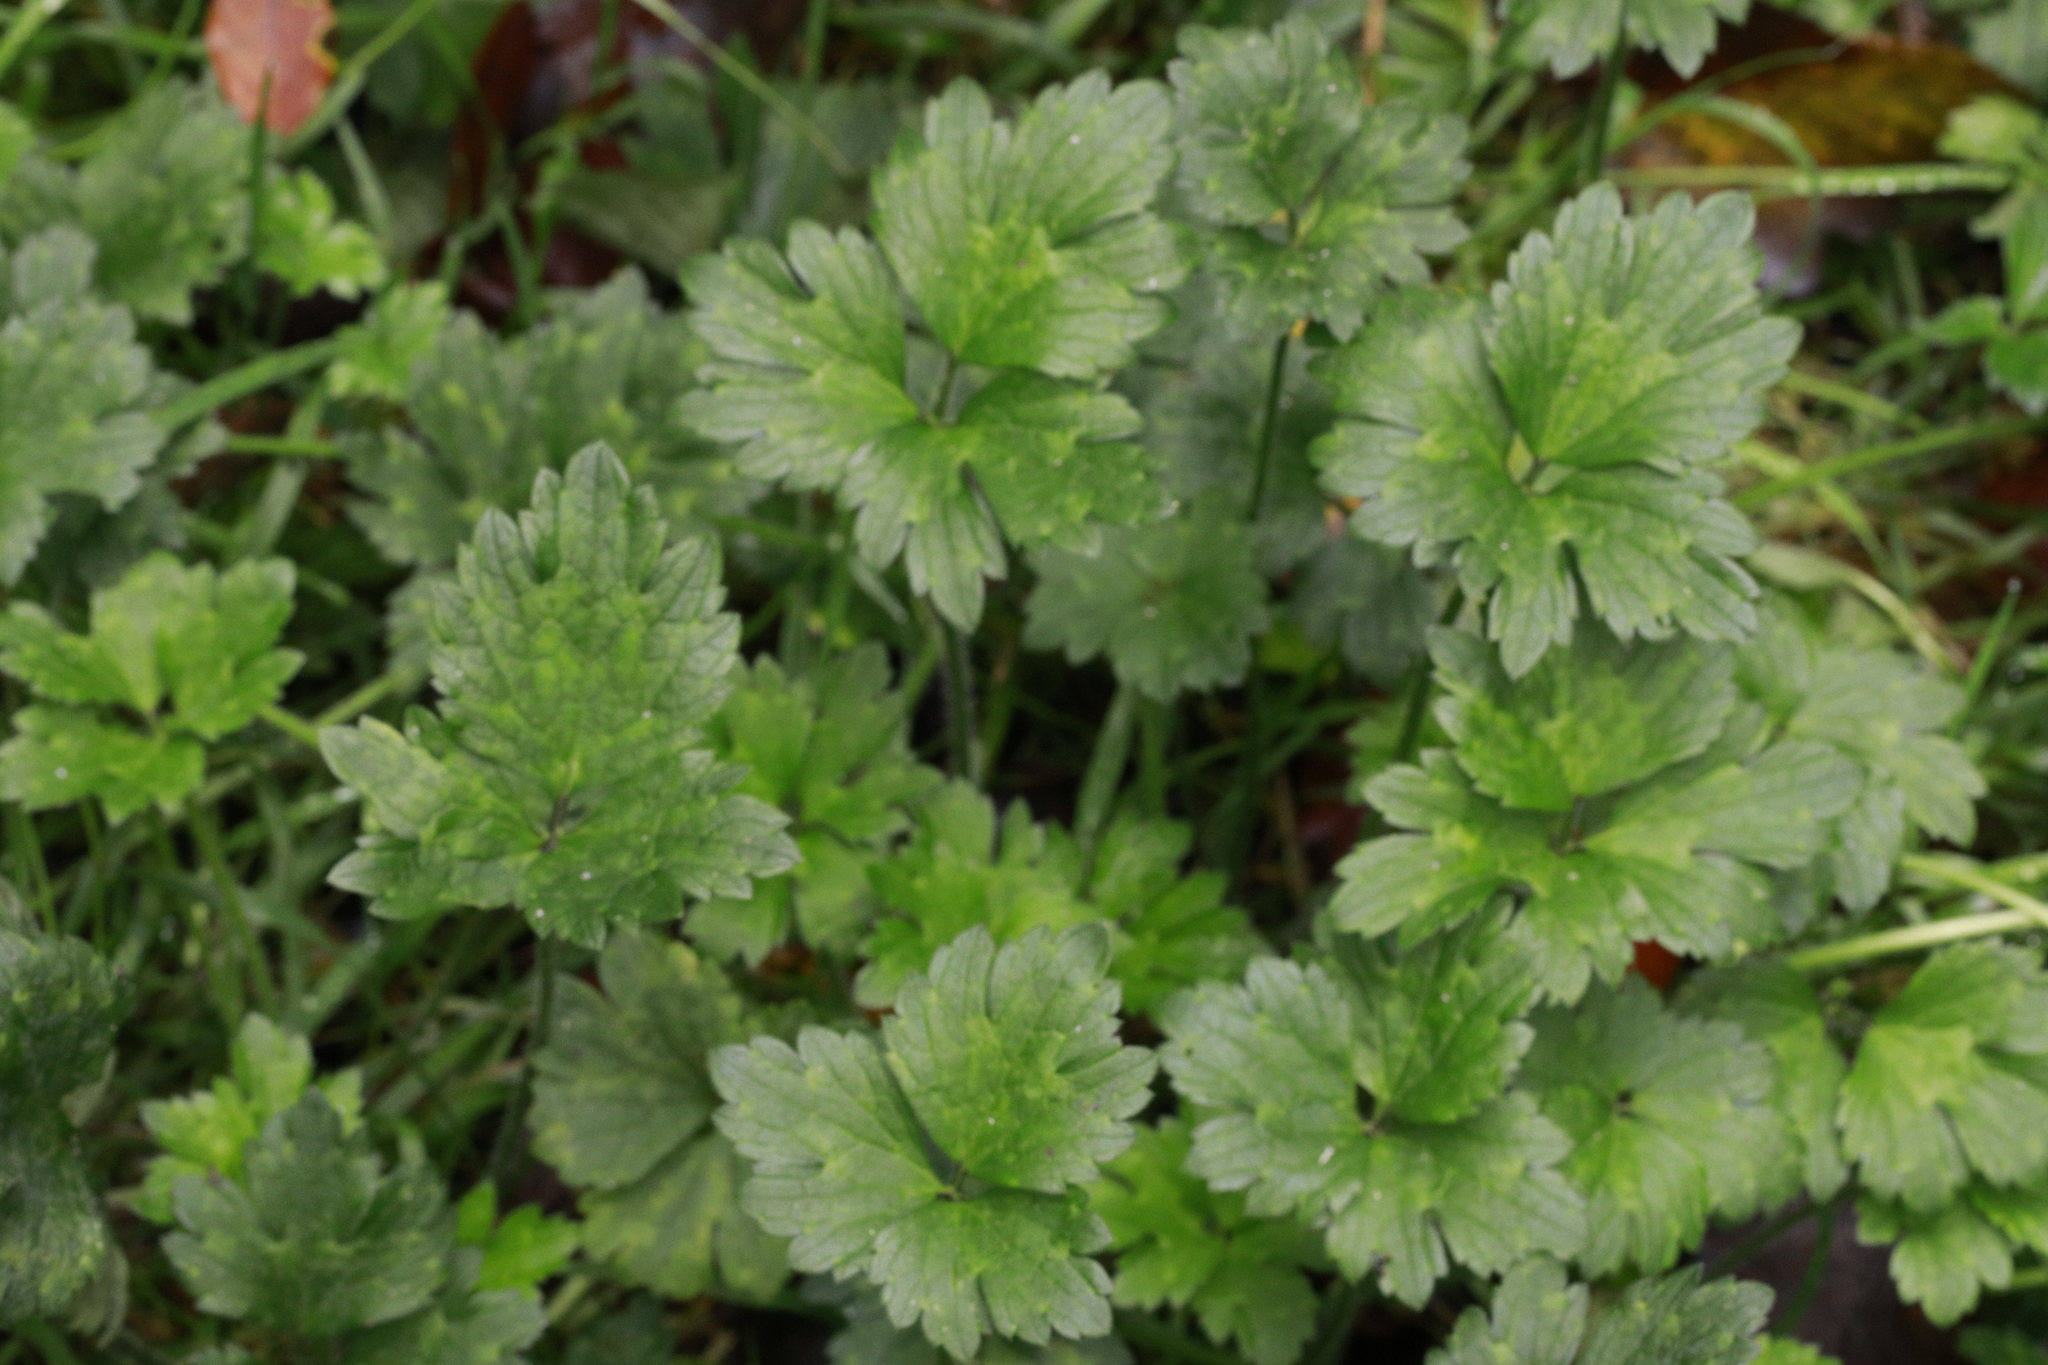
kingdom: Plantae
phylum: Tracheophyta
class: Magnoliopsida
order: Ranunculales
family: Ranunculaceae
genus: Ranunculus
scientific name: Ranunculus repens
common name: Creeping buttercup
